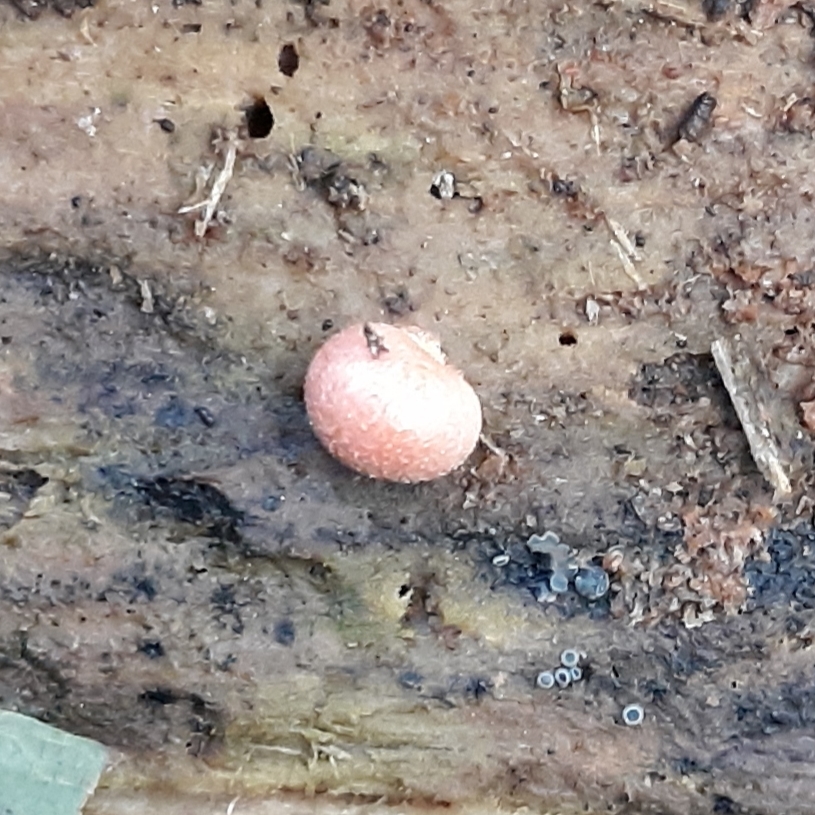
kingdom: Protozoa
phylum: Mycetozoa
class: Myxomycetes
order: Cribrariales
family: Tubiferaceae
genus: Lycogala
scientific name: Lycogala epidendrum
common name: Wolf's milk
